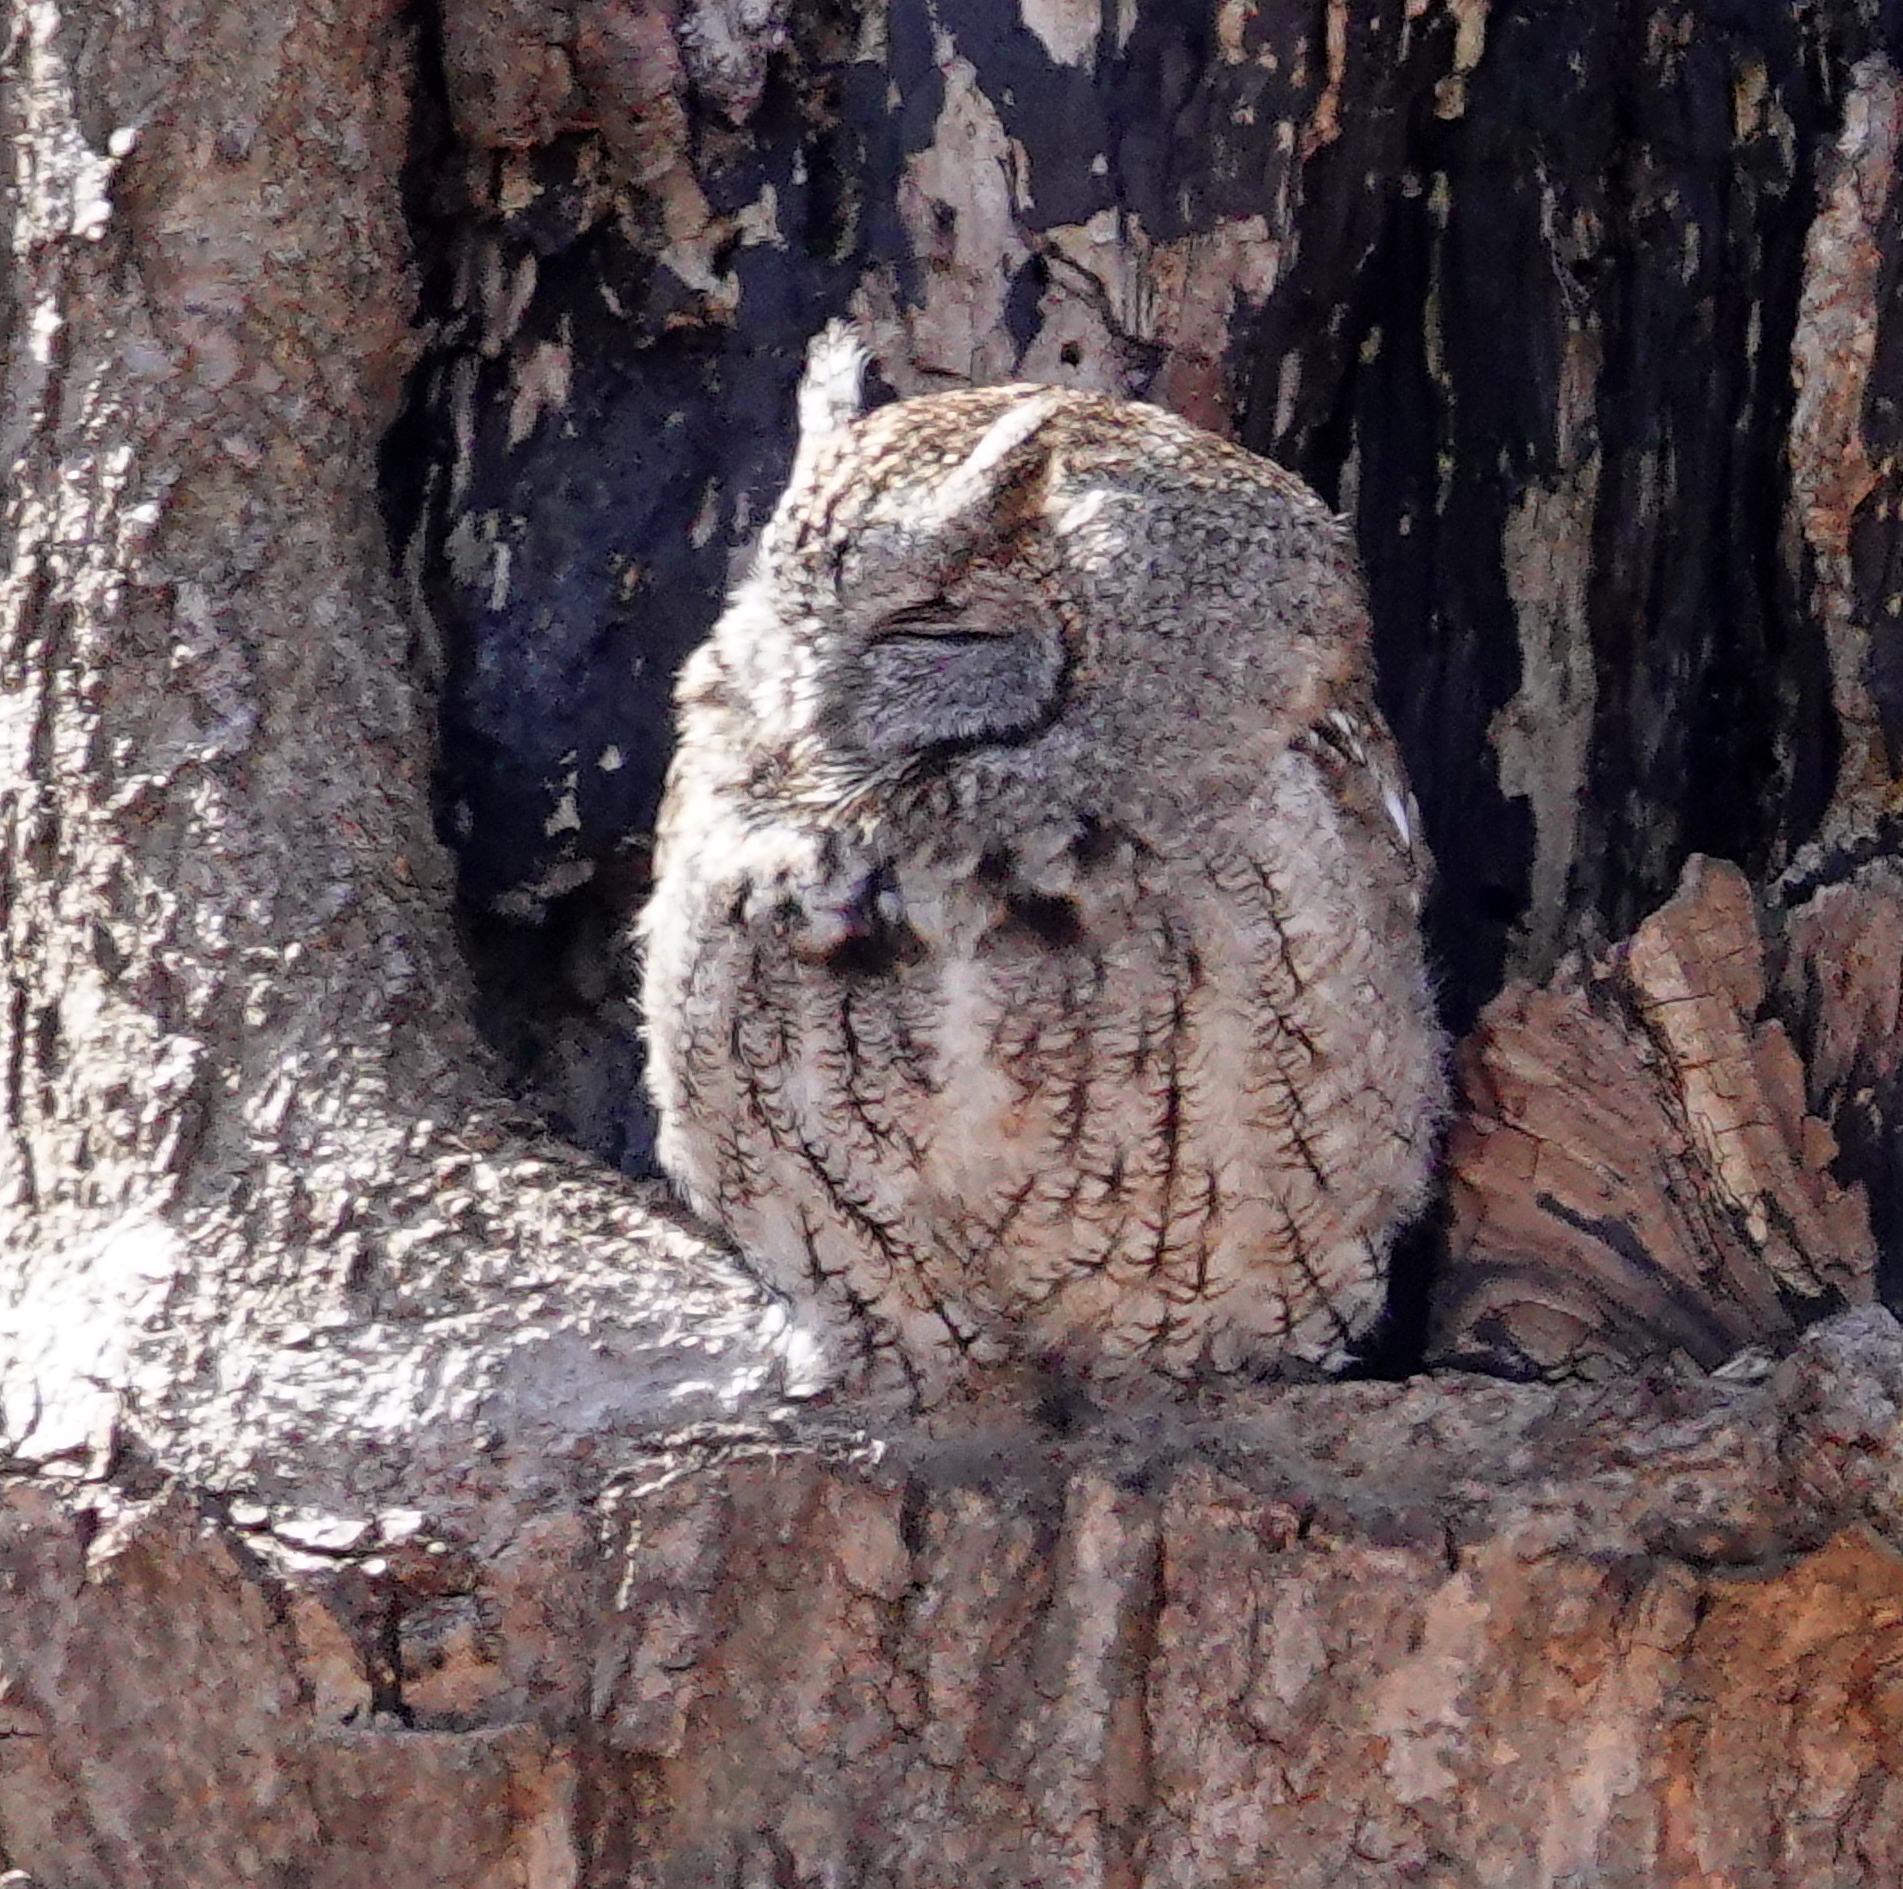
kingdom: Animalia
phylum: Chordata
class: Aves
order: Strigiformes
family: Strigidae
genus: Megascops
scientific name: Megascops asio
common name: Eastern screech-owl
